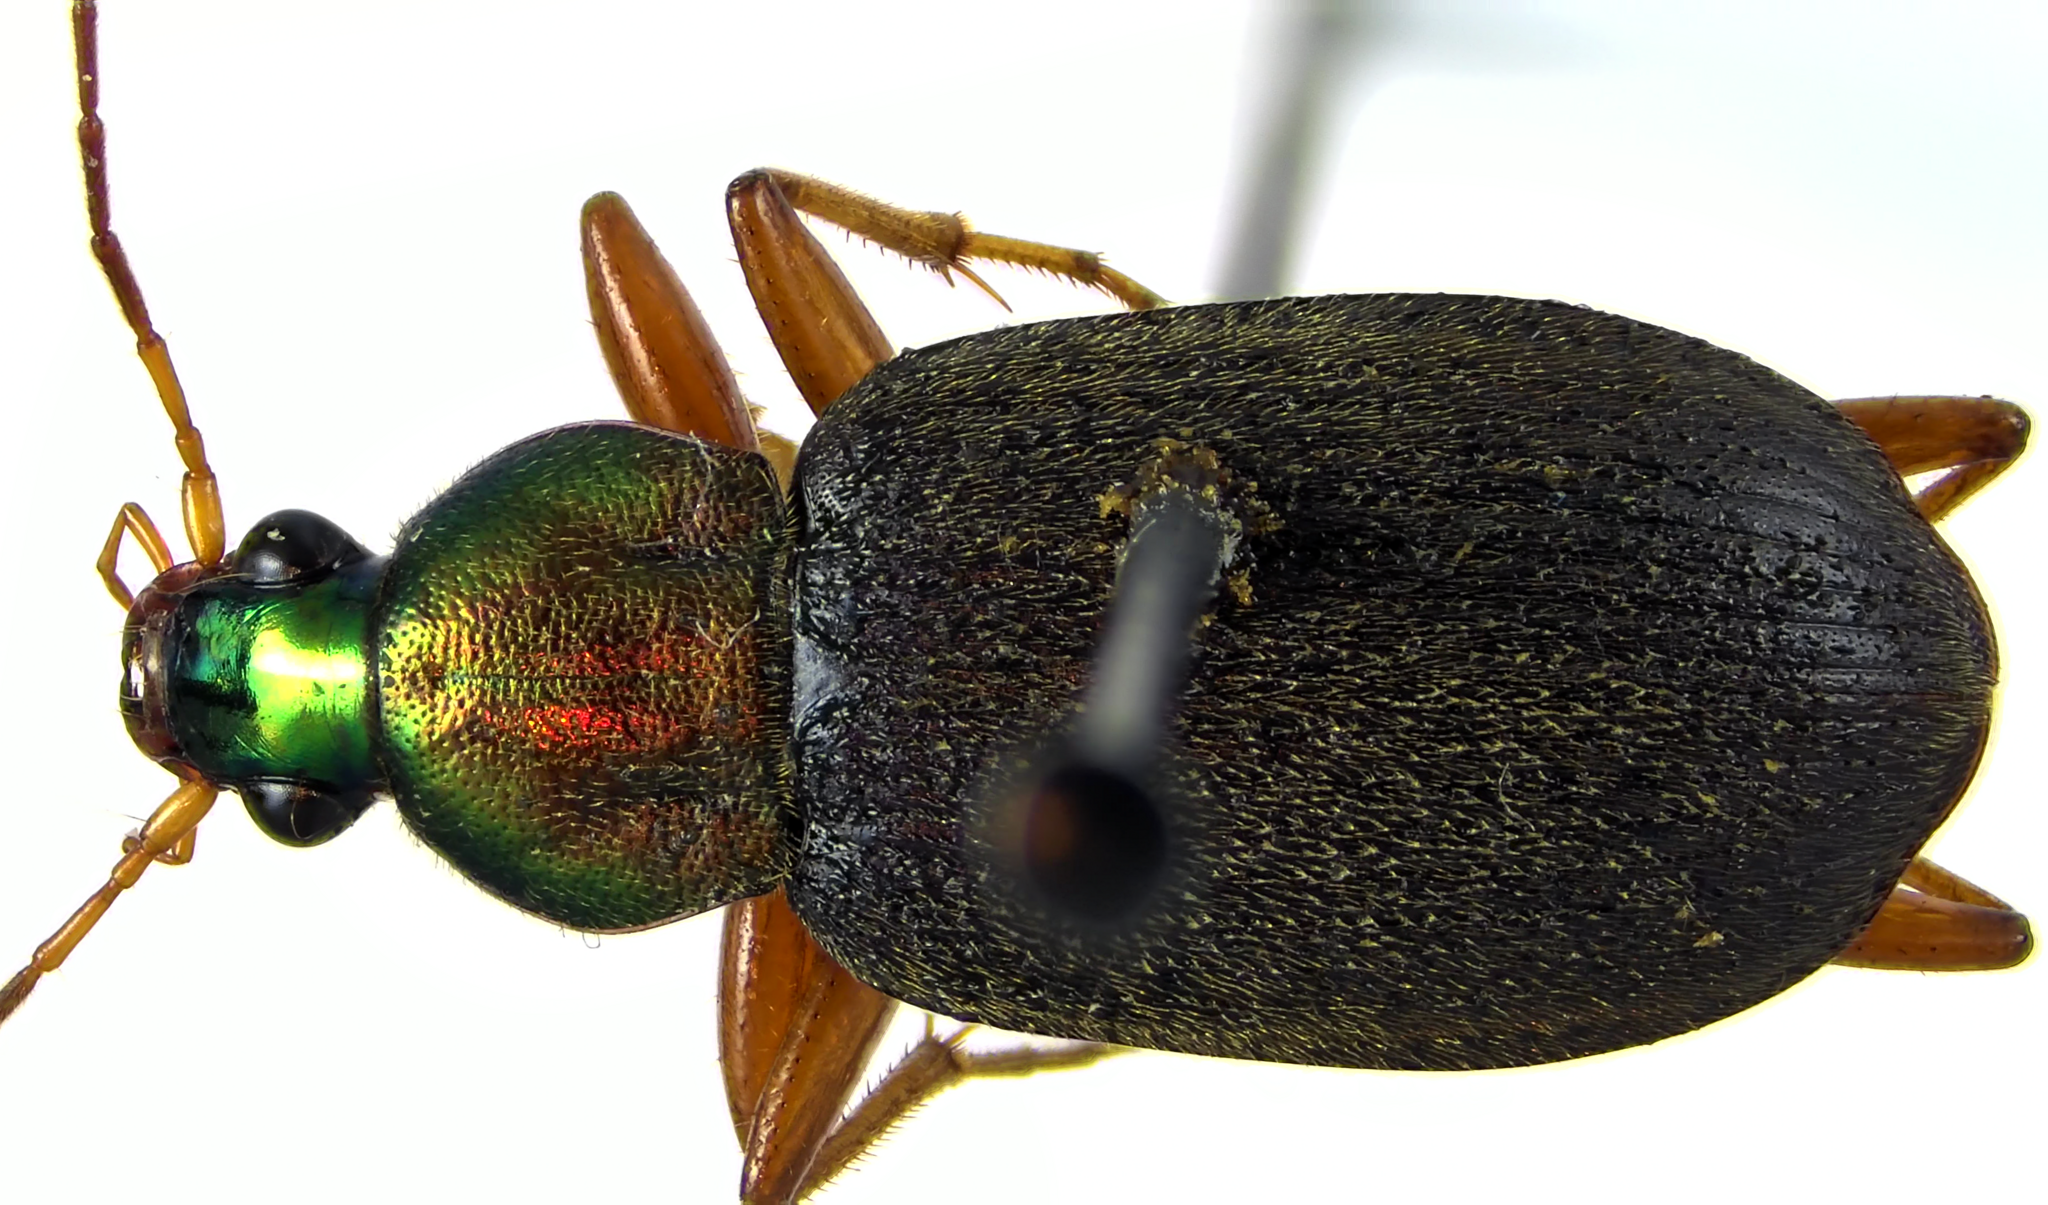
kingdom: Animalia
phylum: Arthropoda
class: Insecta
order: Coleoptera
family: Carabidae
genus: Chlaenius
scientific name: Chlaenius tricolor
